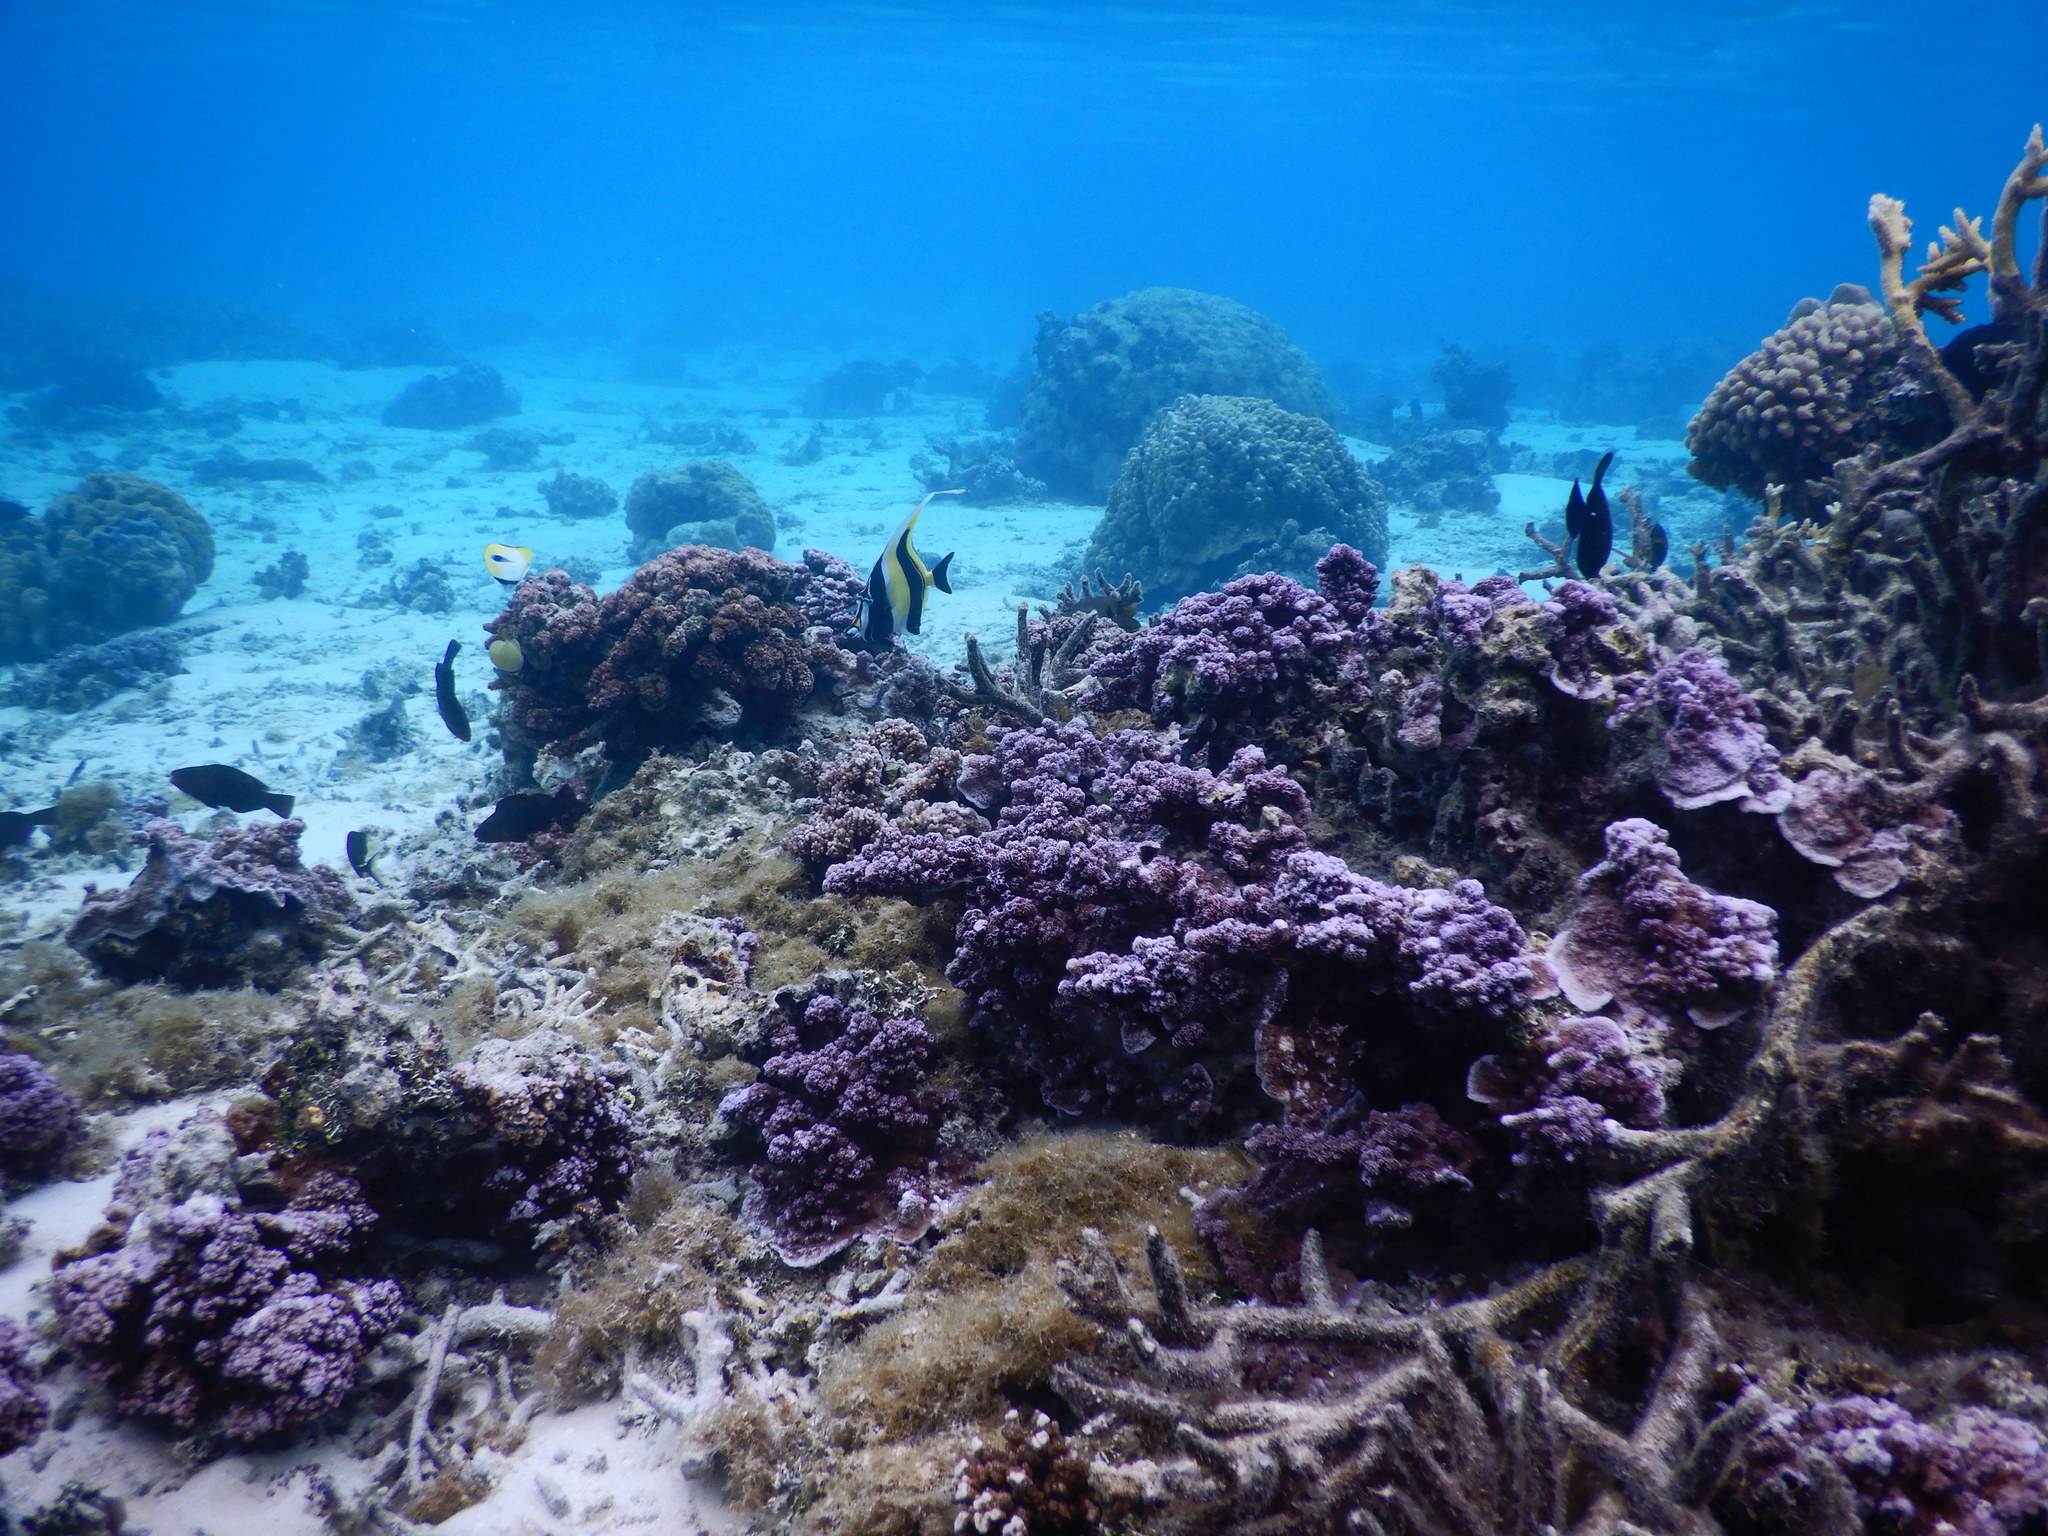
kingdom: Animalia
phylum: Chordata
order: Perciformes
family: Zanclidae
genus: Zanclus
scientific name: Zanclus cornutus
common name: Moorish idol
